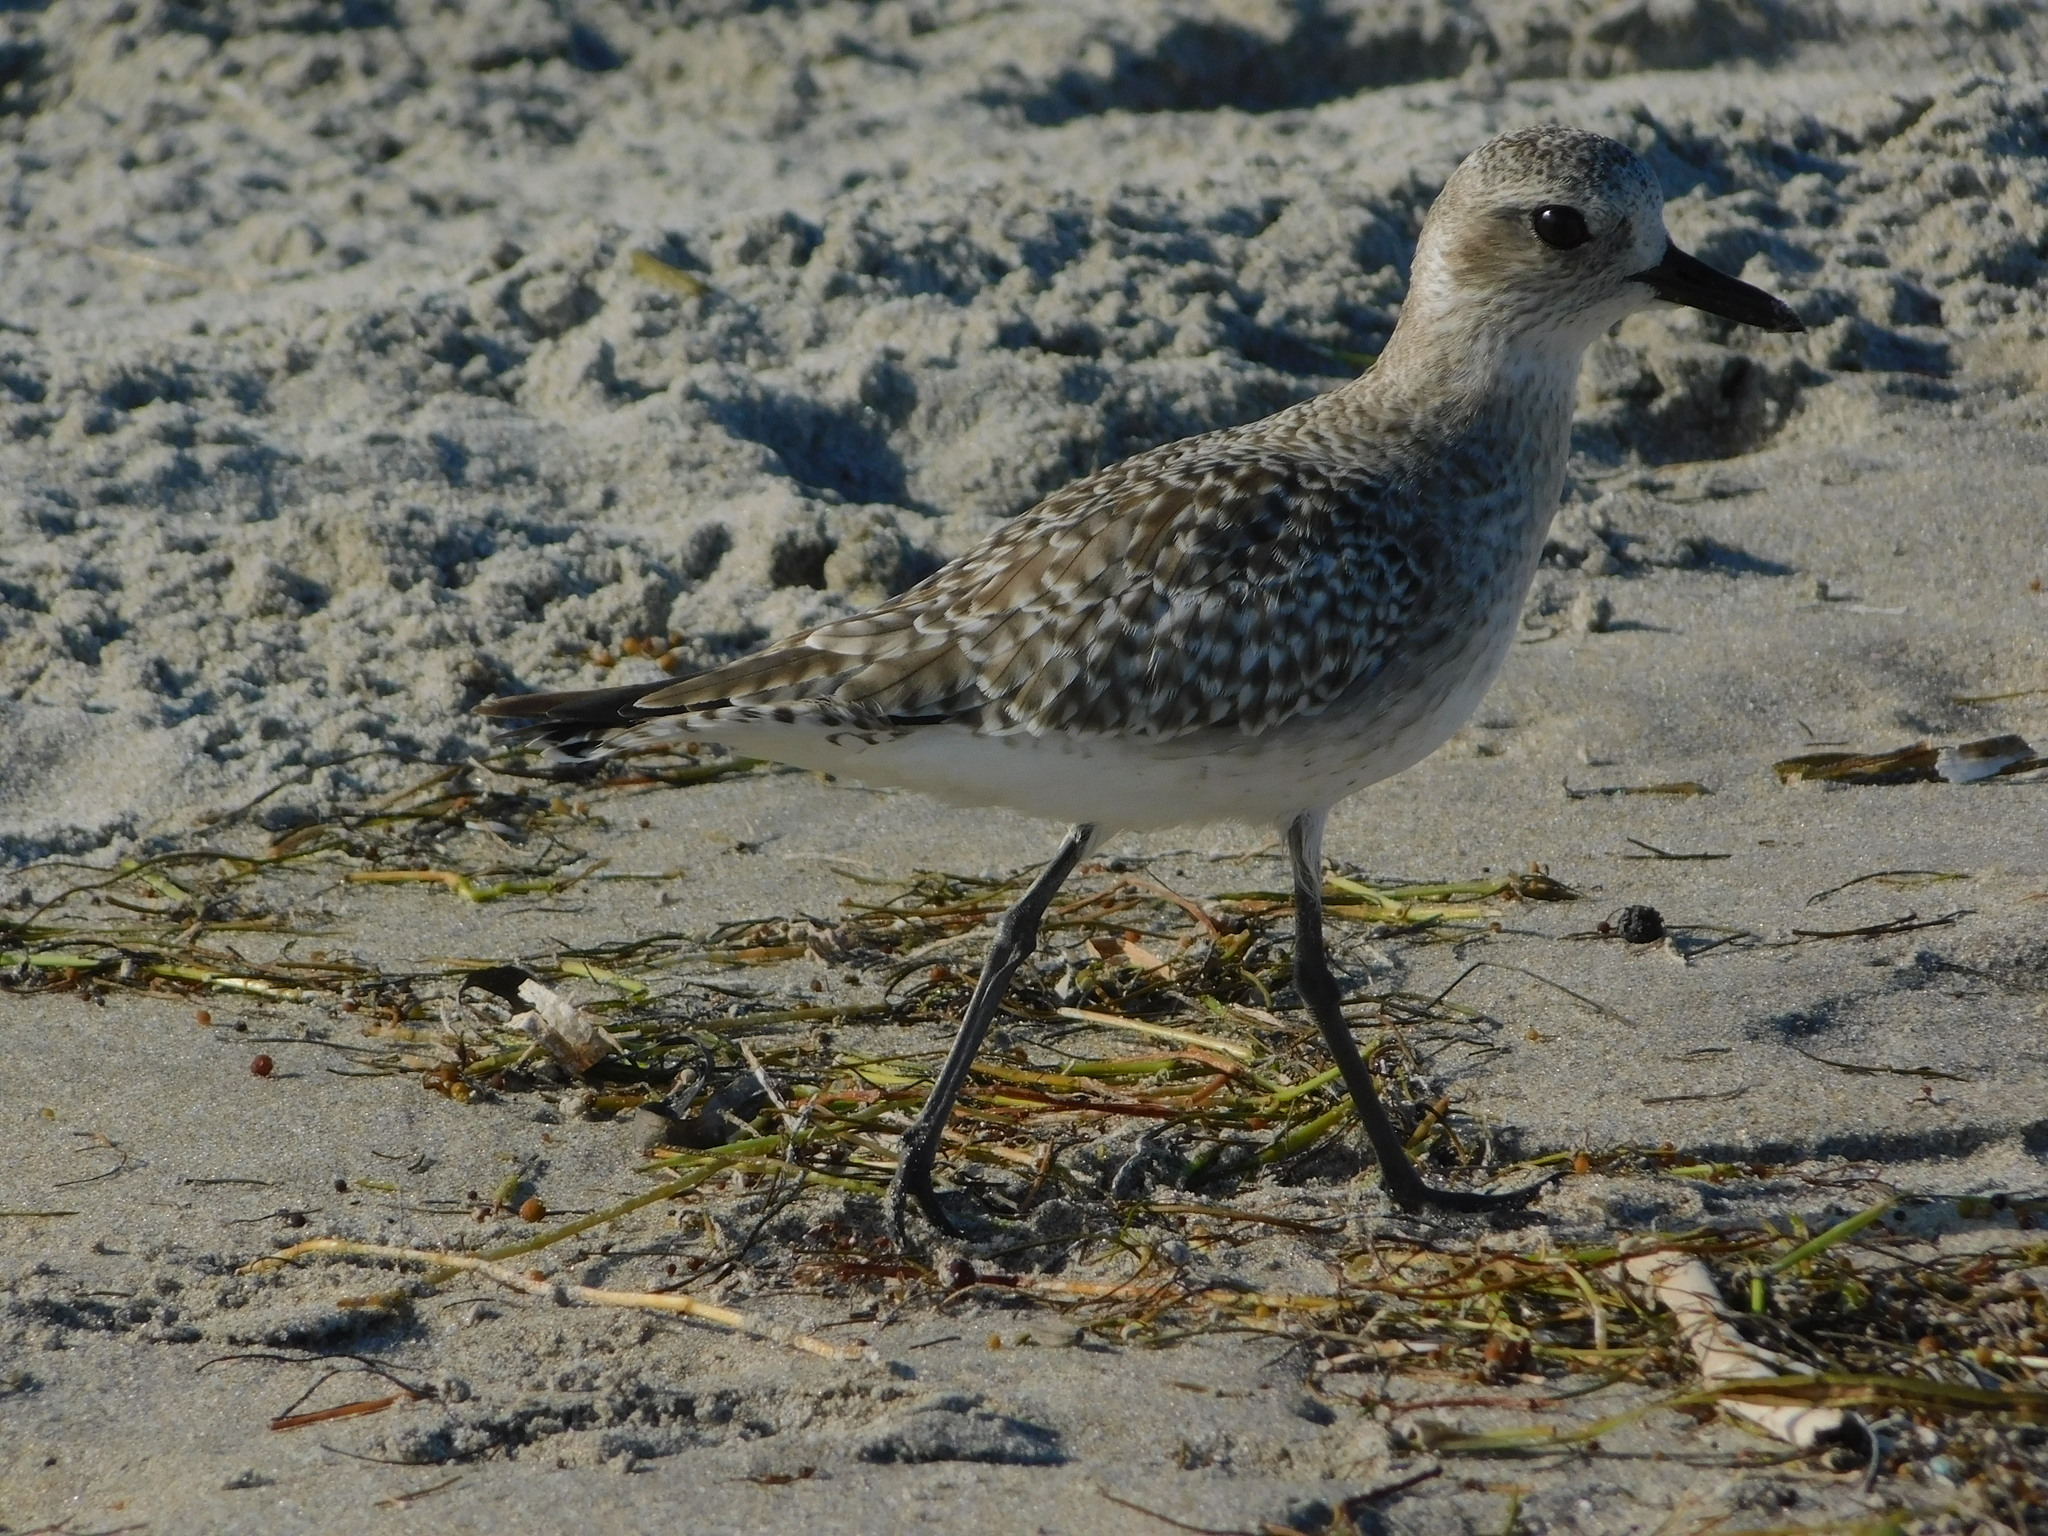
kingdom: Animalia
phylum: Chordata
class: Aves
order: Charadriiformes
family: Charadriidae
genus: Pluvialis
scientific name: Pluvialis squatarola
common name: Grey plover
